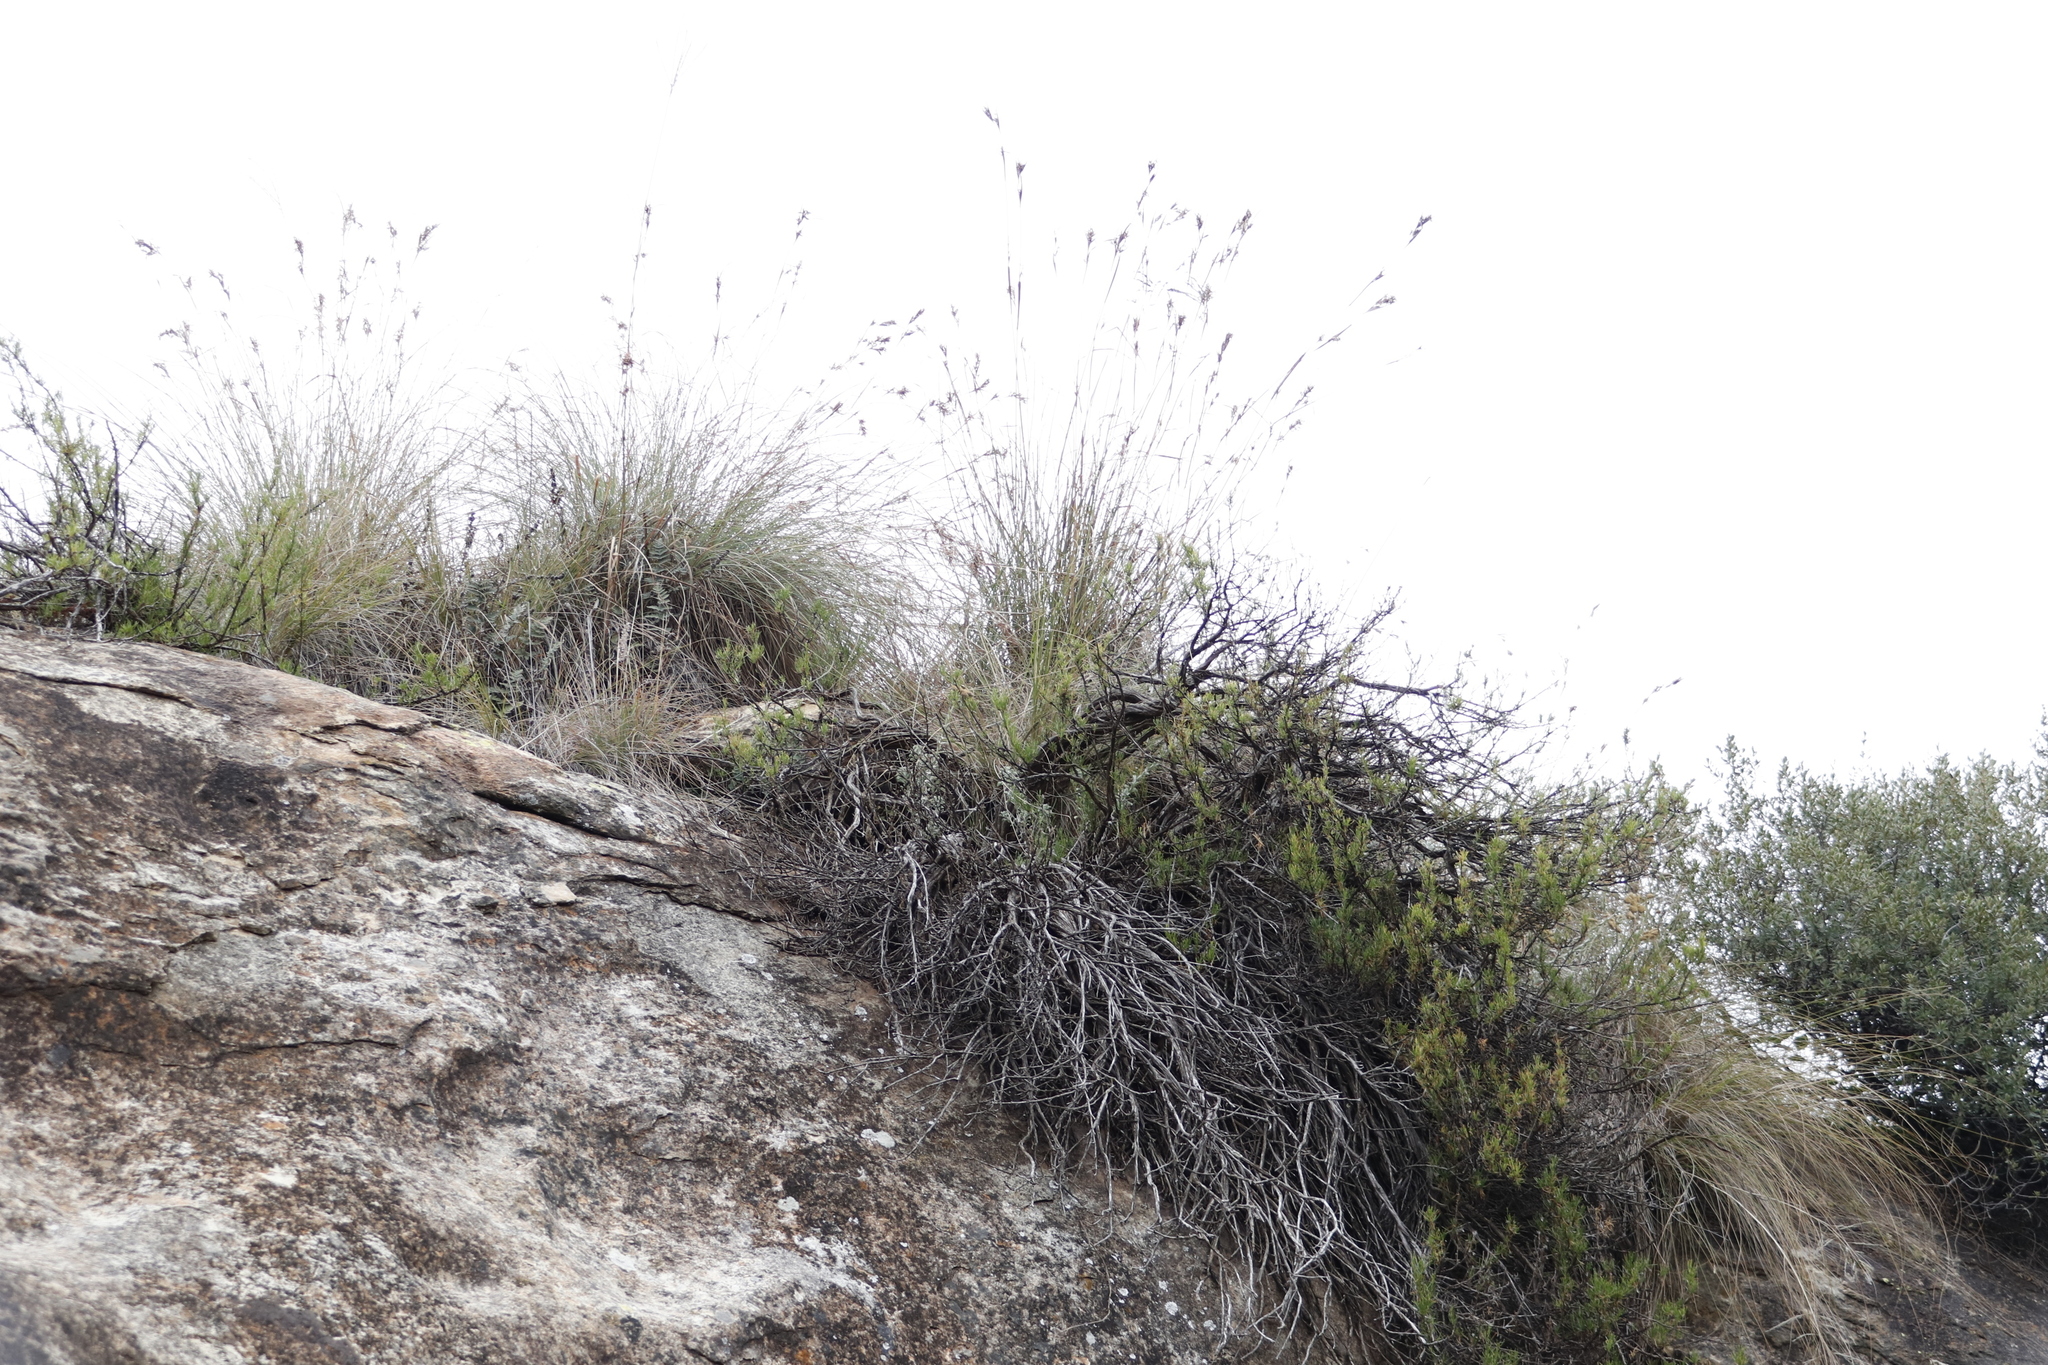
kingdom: Plantae
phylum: Tracheophyta
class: Liliopsida
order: Poales
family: Poaceae
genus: Hyparrhenia
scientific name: Hyparrhenia dregeana
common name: Silky thatching grass
